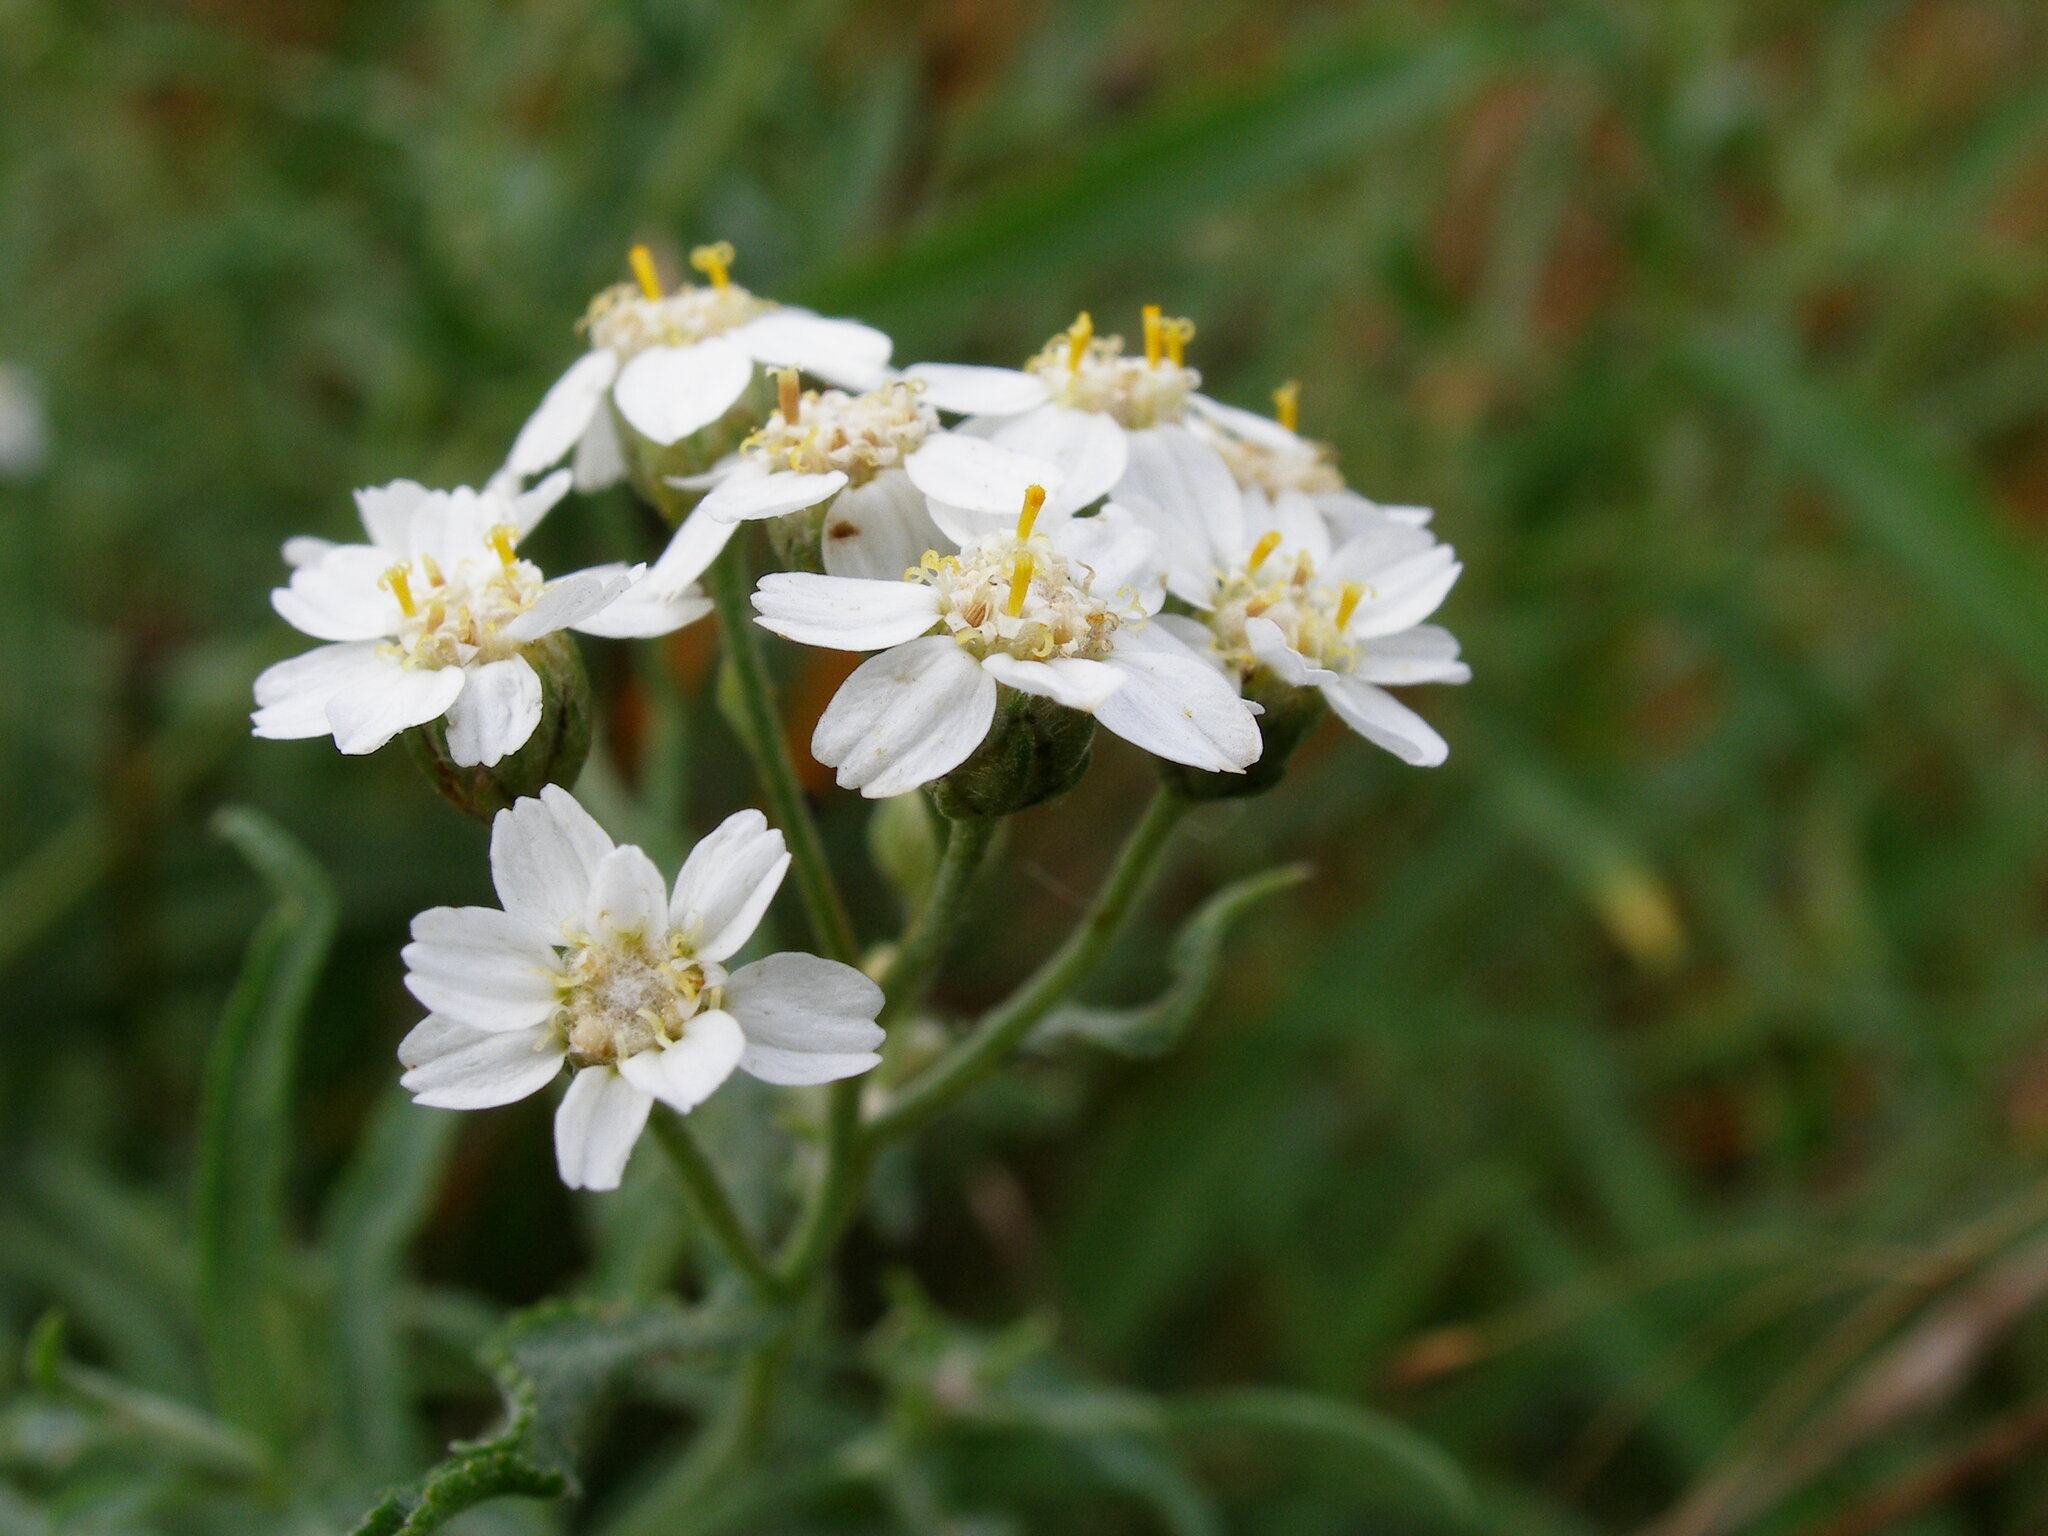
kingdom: Plantae
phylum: Tracheophyta
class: Magnoliopsida
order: Asterales
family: Asteraceae
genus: Achillea
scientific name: Achillea salicifolia
